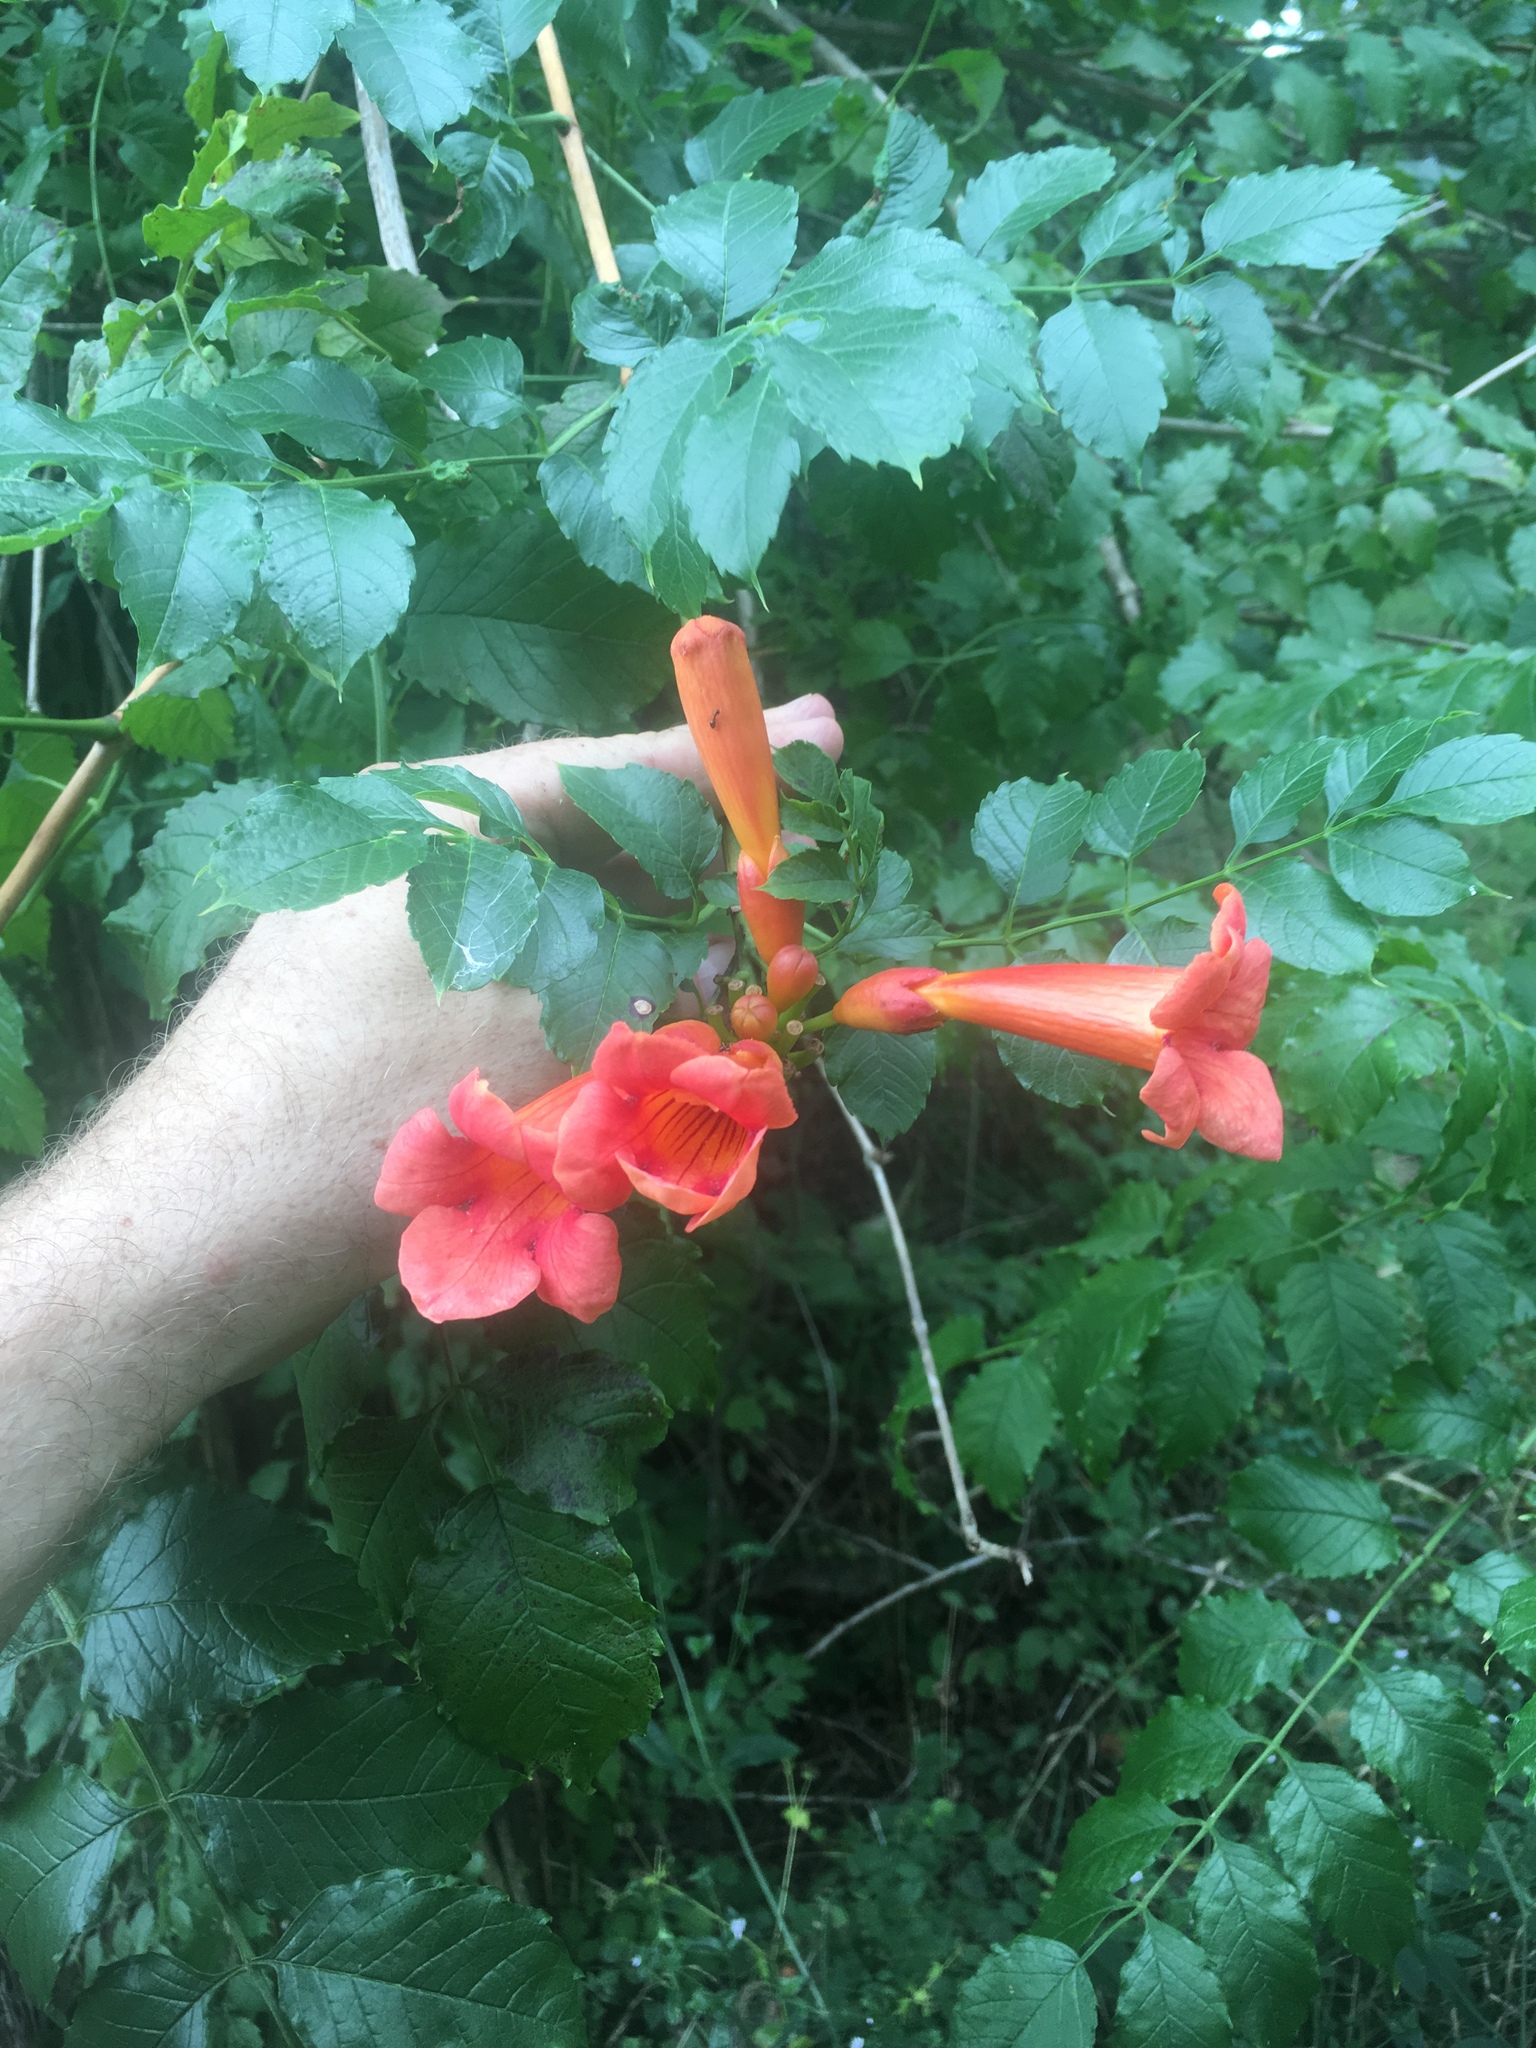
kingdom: Plantae
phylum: Tracheophyta
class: Magnoliopsida
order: Lamiales
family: Bignoniaceae
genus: Campsis
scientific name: Campsis radicans
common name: Trumpet-creeper
